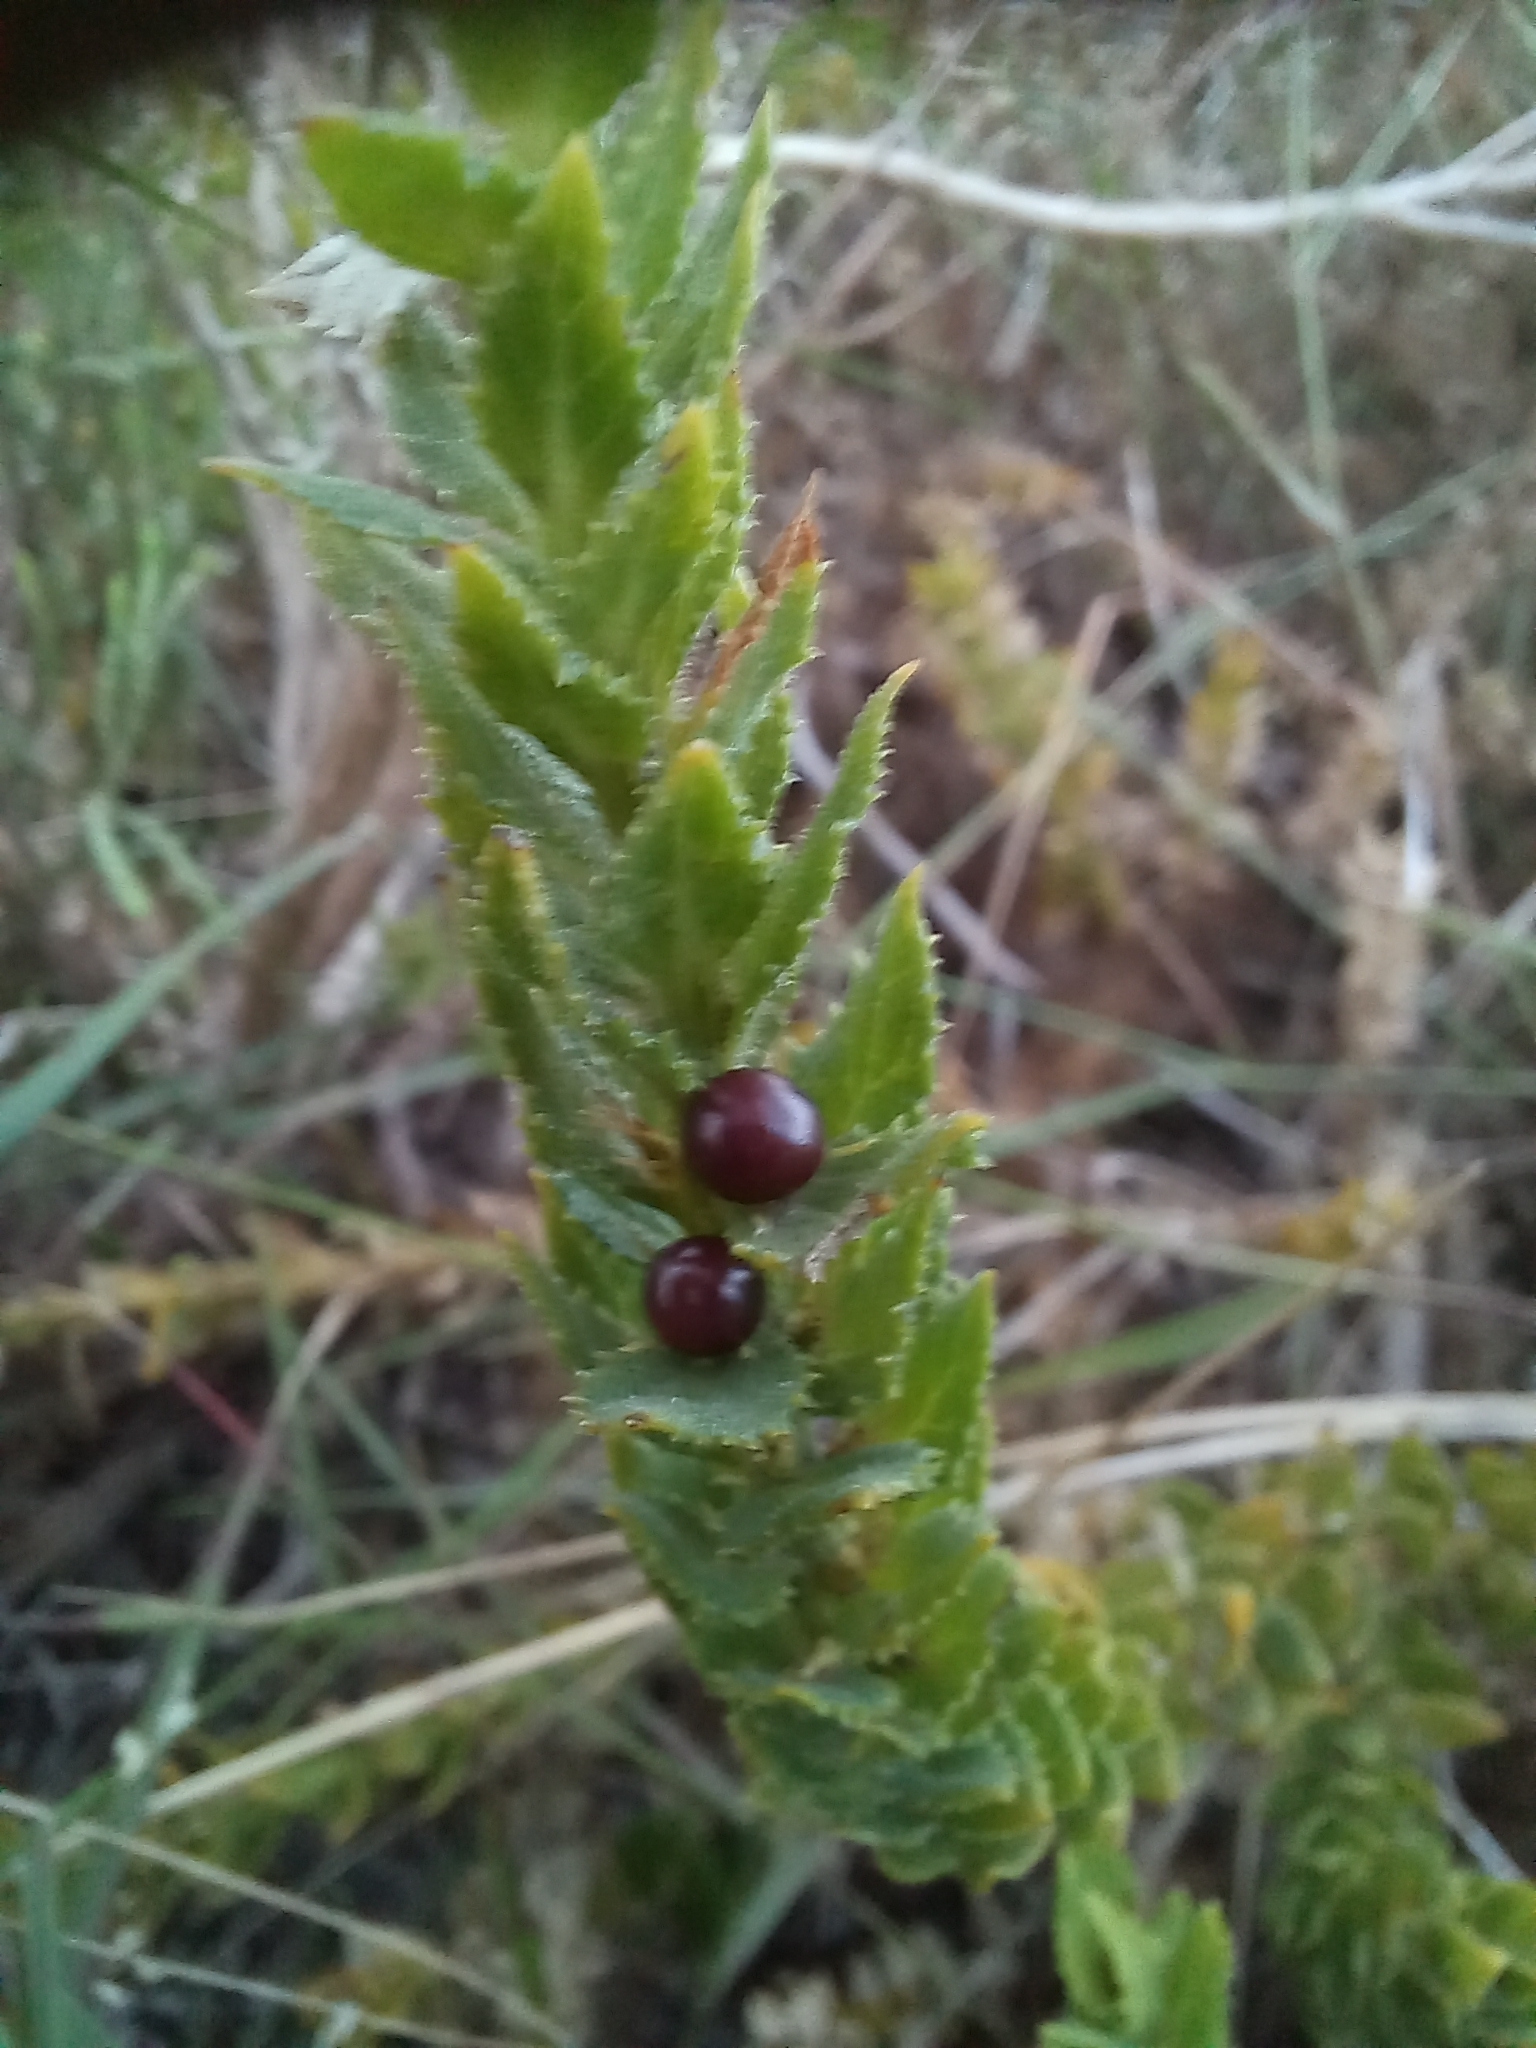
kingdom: Plantae
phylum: Tracheophyta
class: Magnoliopsida
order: Lamiales
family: Scrophulariaceae
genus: Oftia
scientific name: Oftia africana
